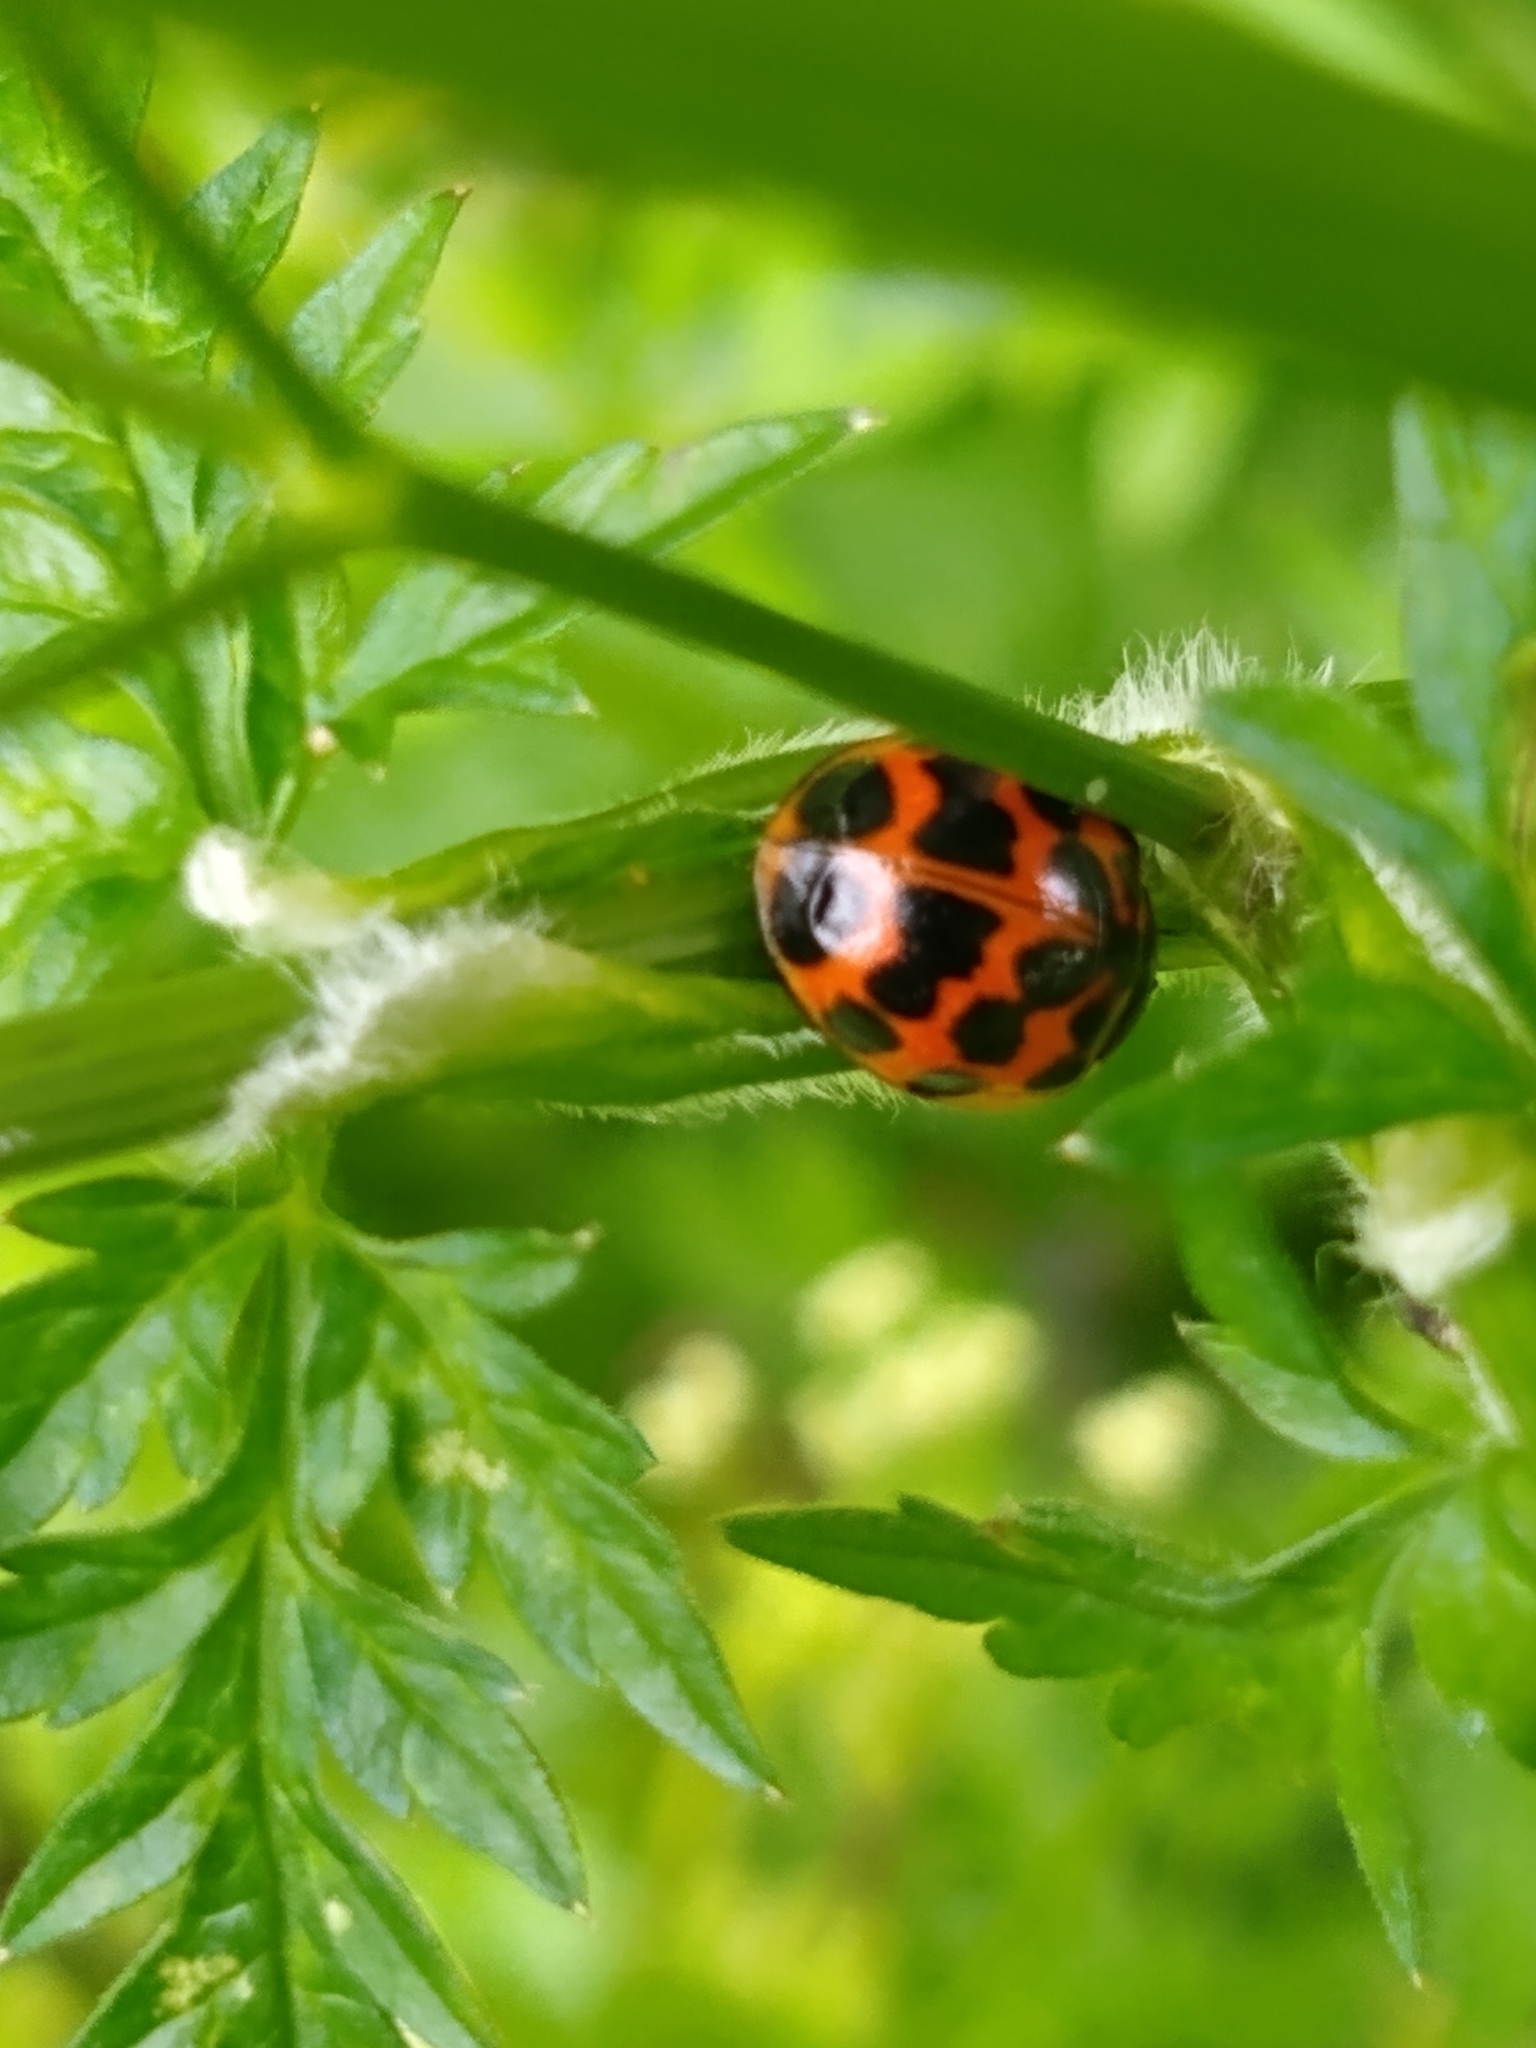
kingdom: Animalia
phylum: Arthropoda
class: Insecta
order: Coleoptera
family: Coccinellidae
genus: Harmonia
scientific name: Harmonia axyridis
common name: Harlequin ladybird
